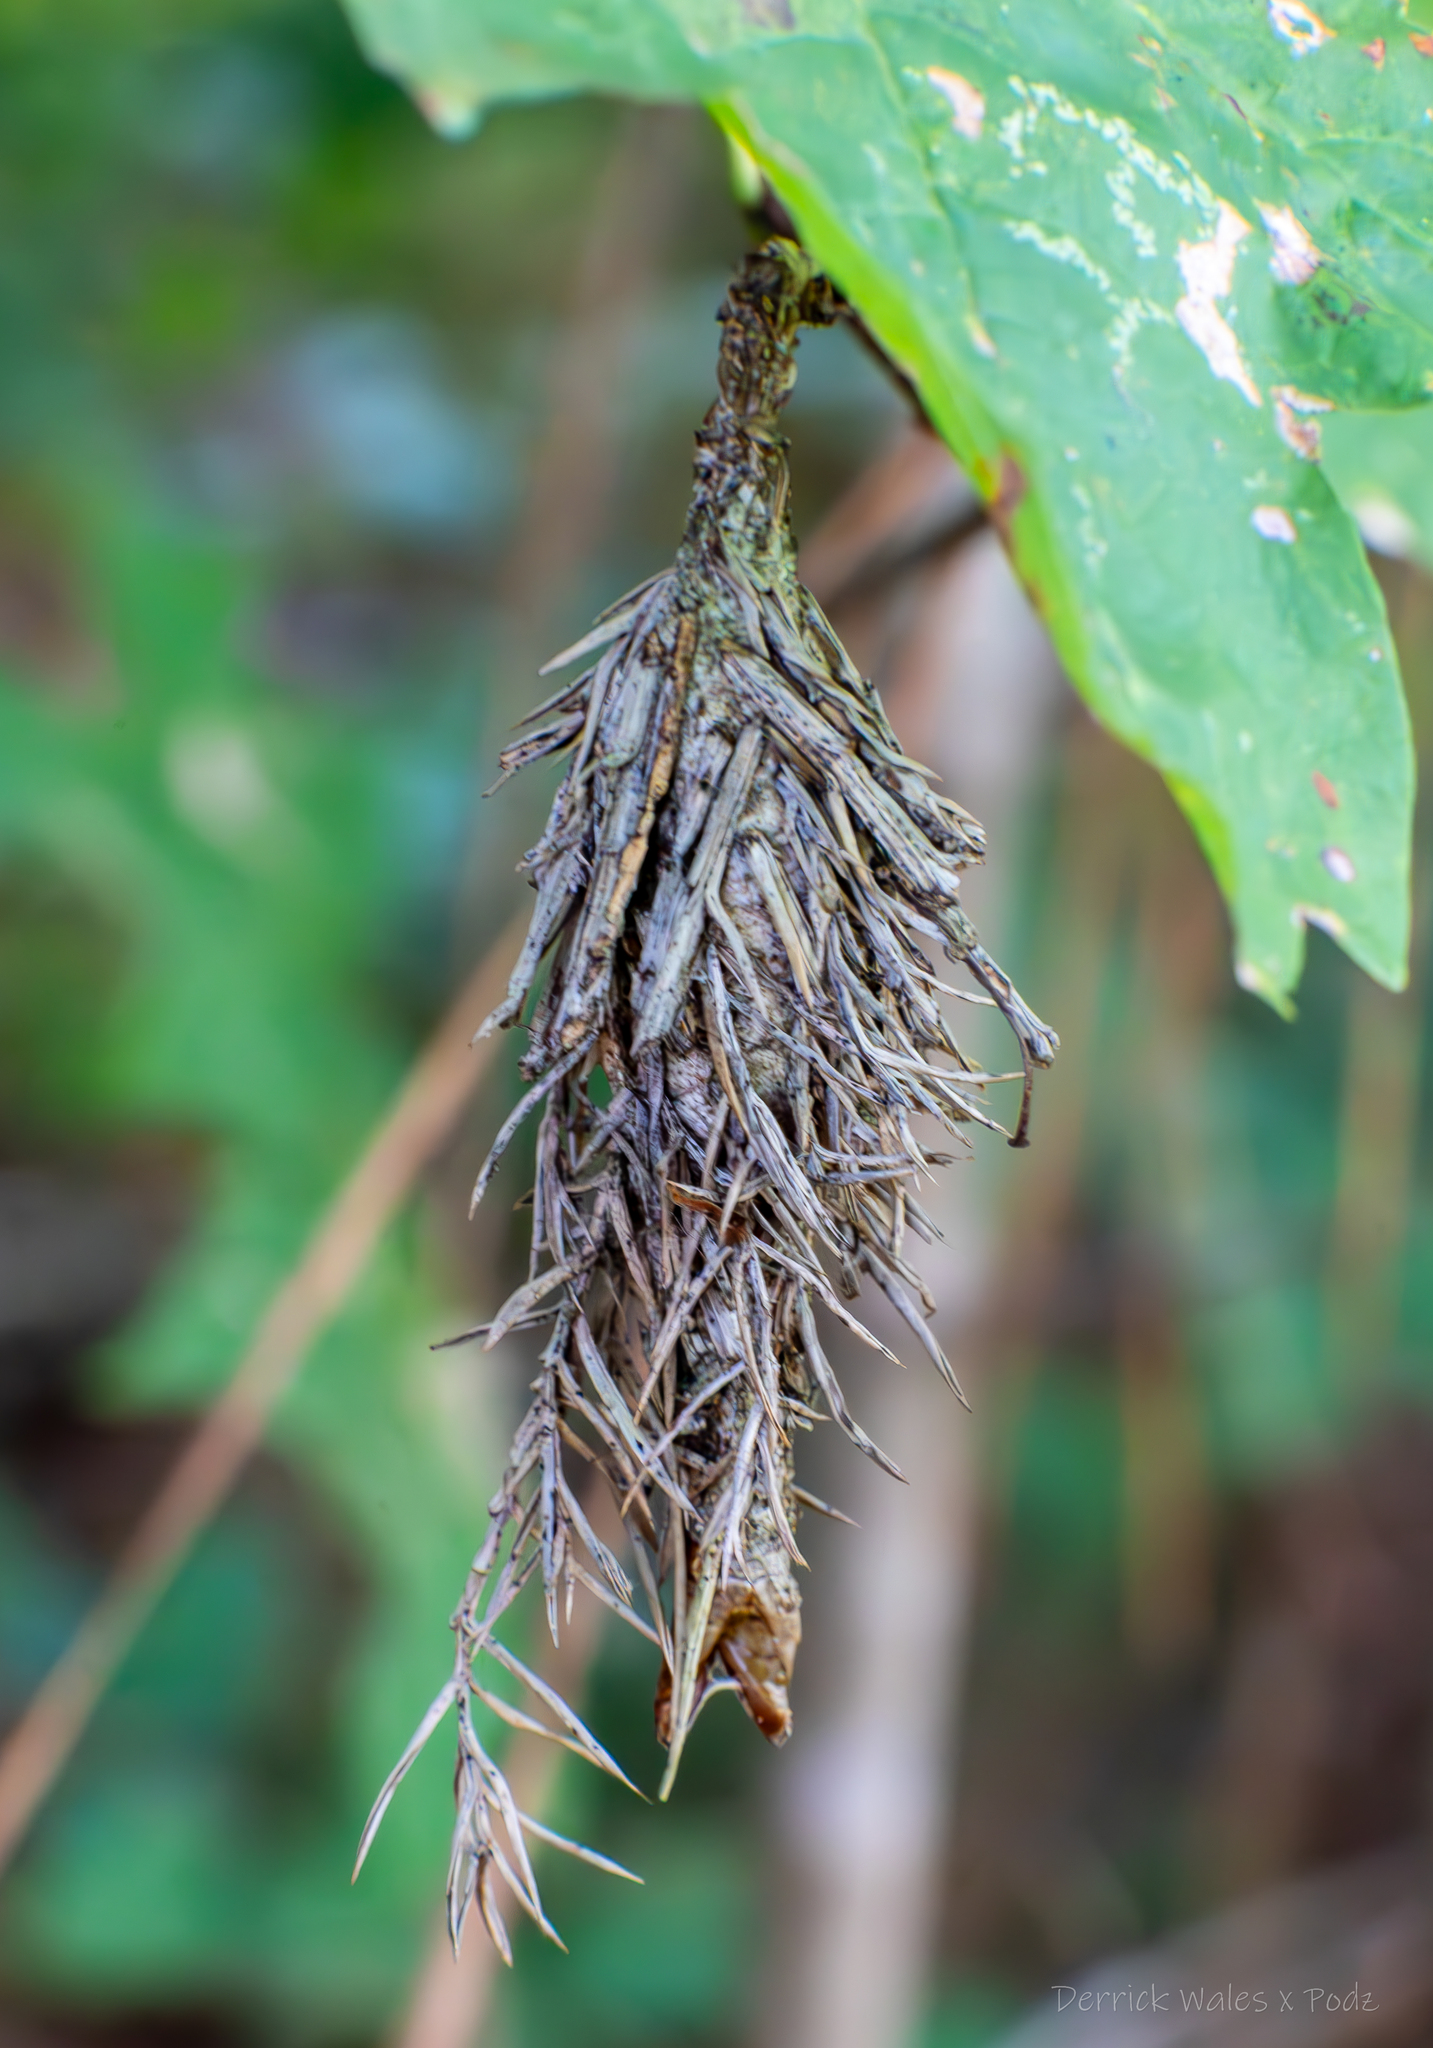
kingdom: Animalia
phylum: Arthropoda
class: Insecta
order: Lepidoptera
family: Psychidae
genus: Thyridopteryx
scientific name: Thyridopteryx ephemeraeformis
